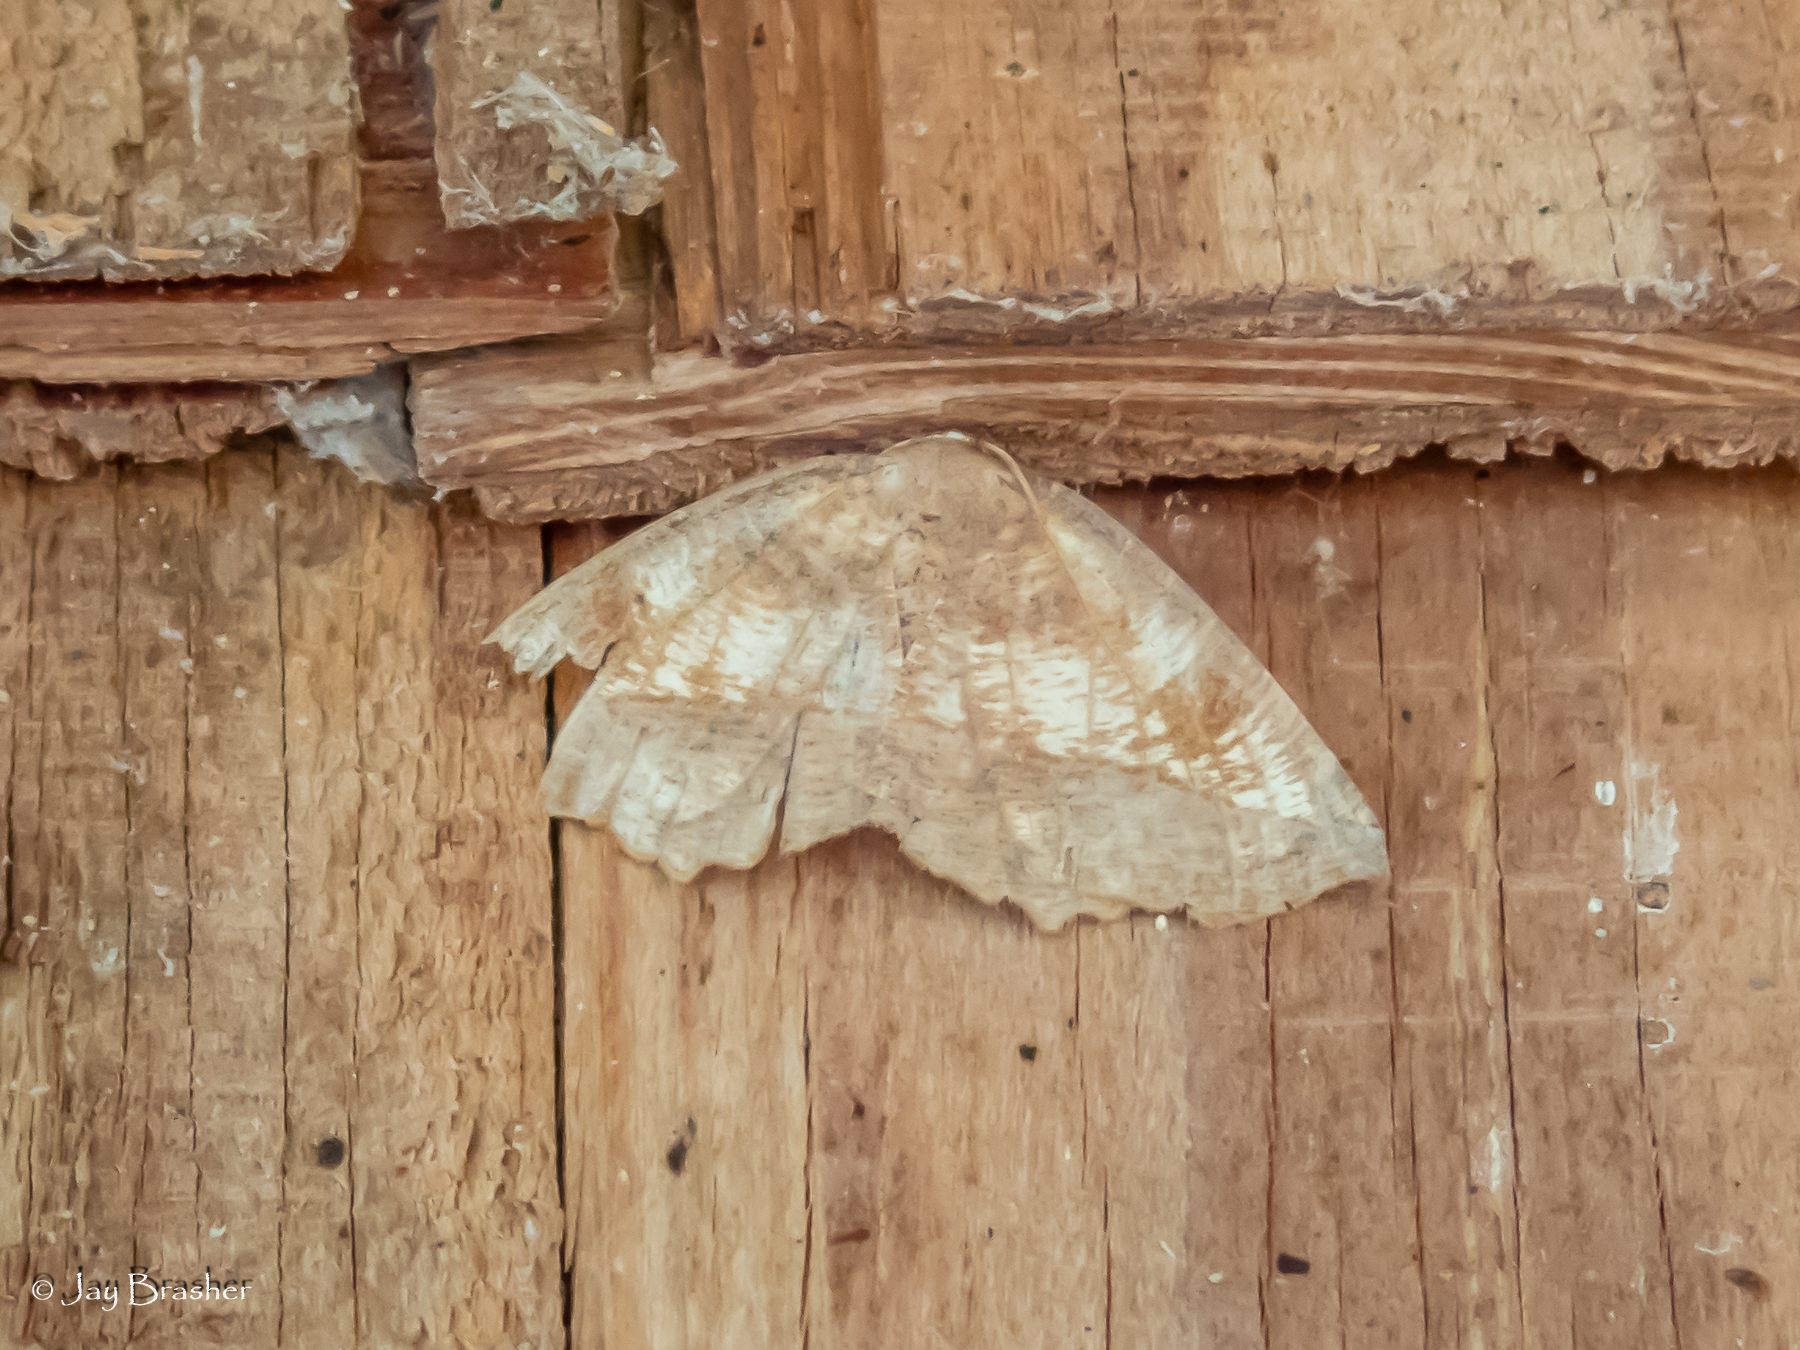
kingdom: Animalia
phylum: Arthropoda
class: Insecta
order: Lepidoptera
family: Geometridae
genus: Eutrapela
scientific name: Eutrapela clemataria
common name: Curved-toothed geometer
